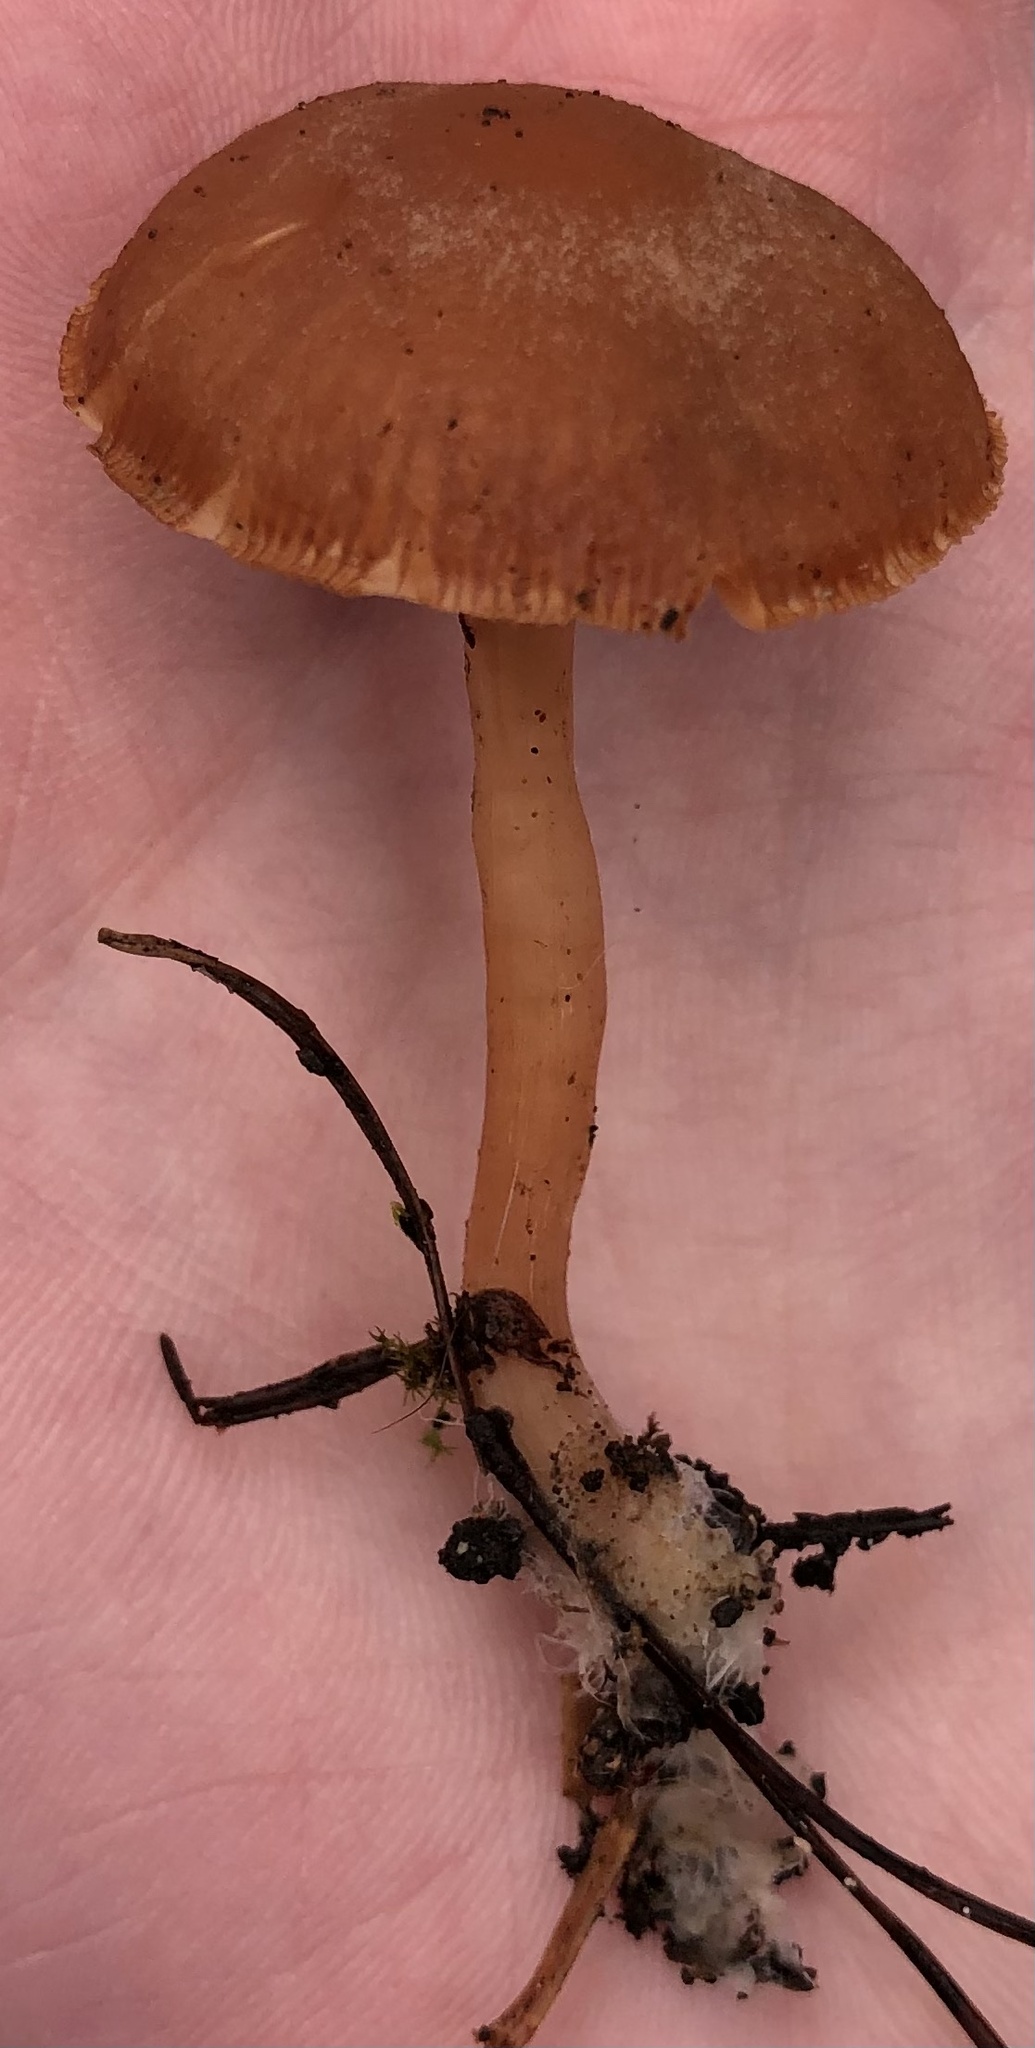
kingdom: Fungi
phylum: Basidiomycota
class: Agaricomycetes
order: Agaricales
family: Tubariaceae
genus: Tubaria
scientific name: Tubaria furfuracea
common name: Scurfy twiglet
